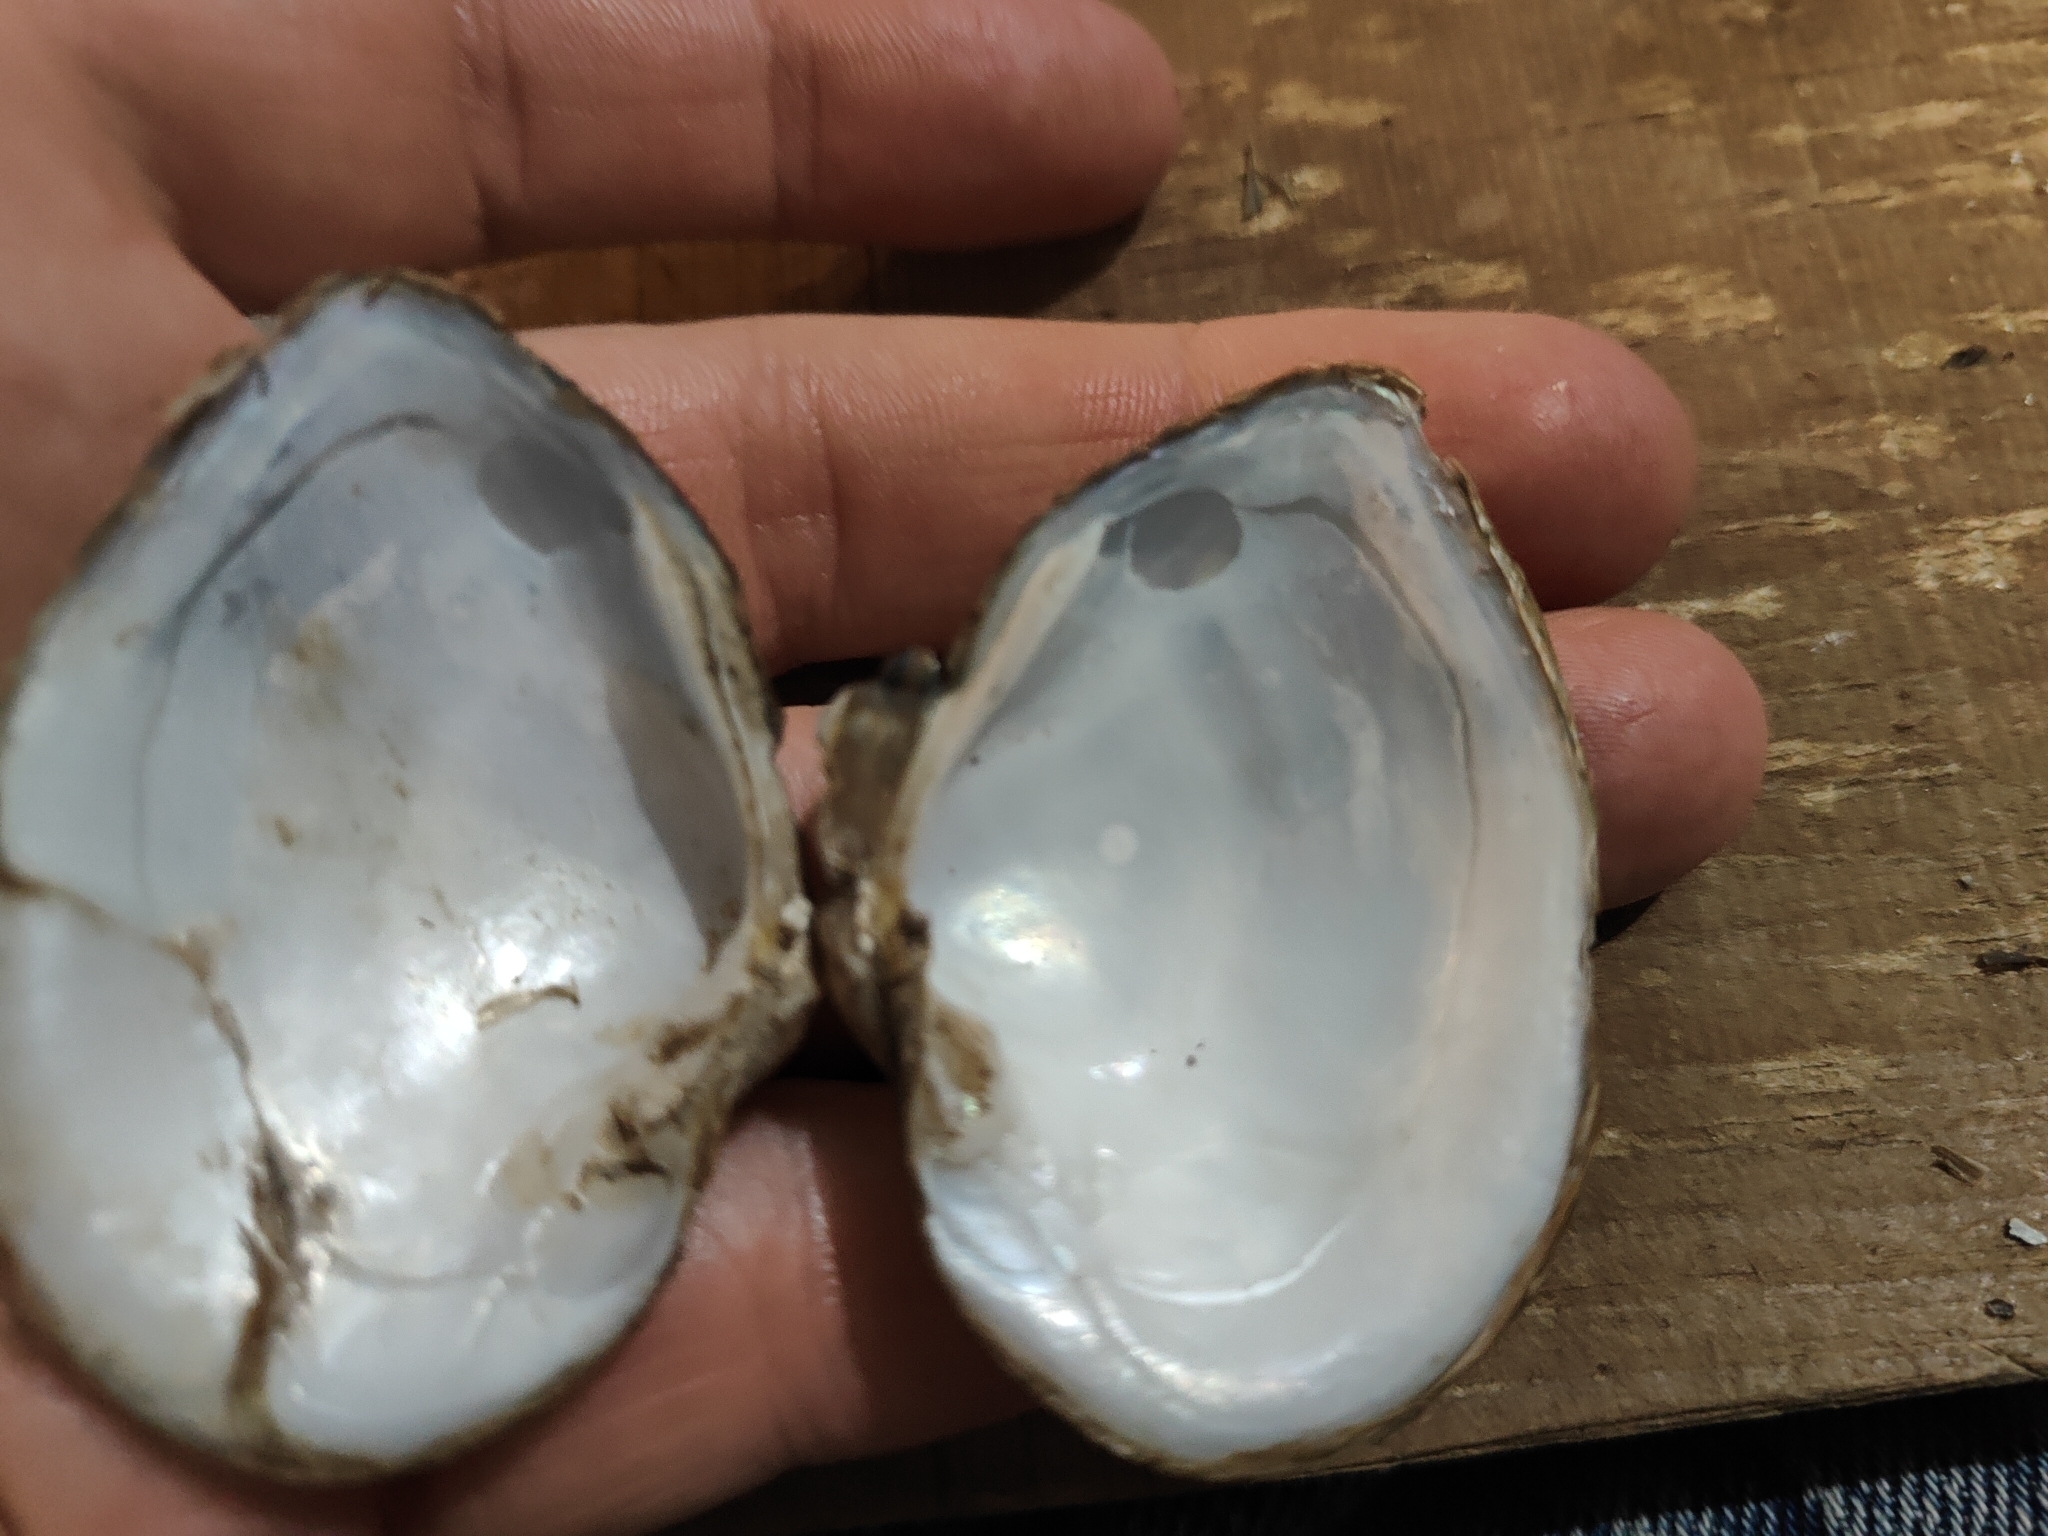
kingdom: Animalia
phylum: Mollusca
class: Bivalvia
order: Unionida
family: Unionidae
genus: Truncilla
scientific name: Truncilla truncata
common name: Deertoe
